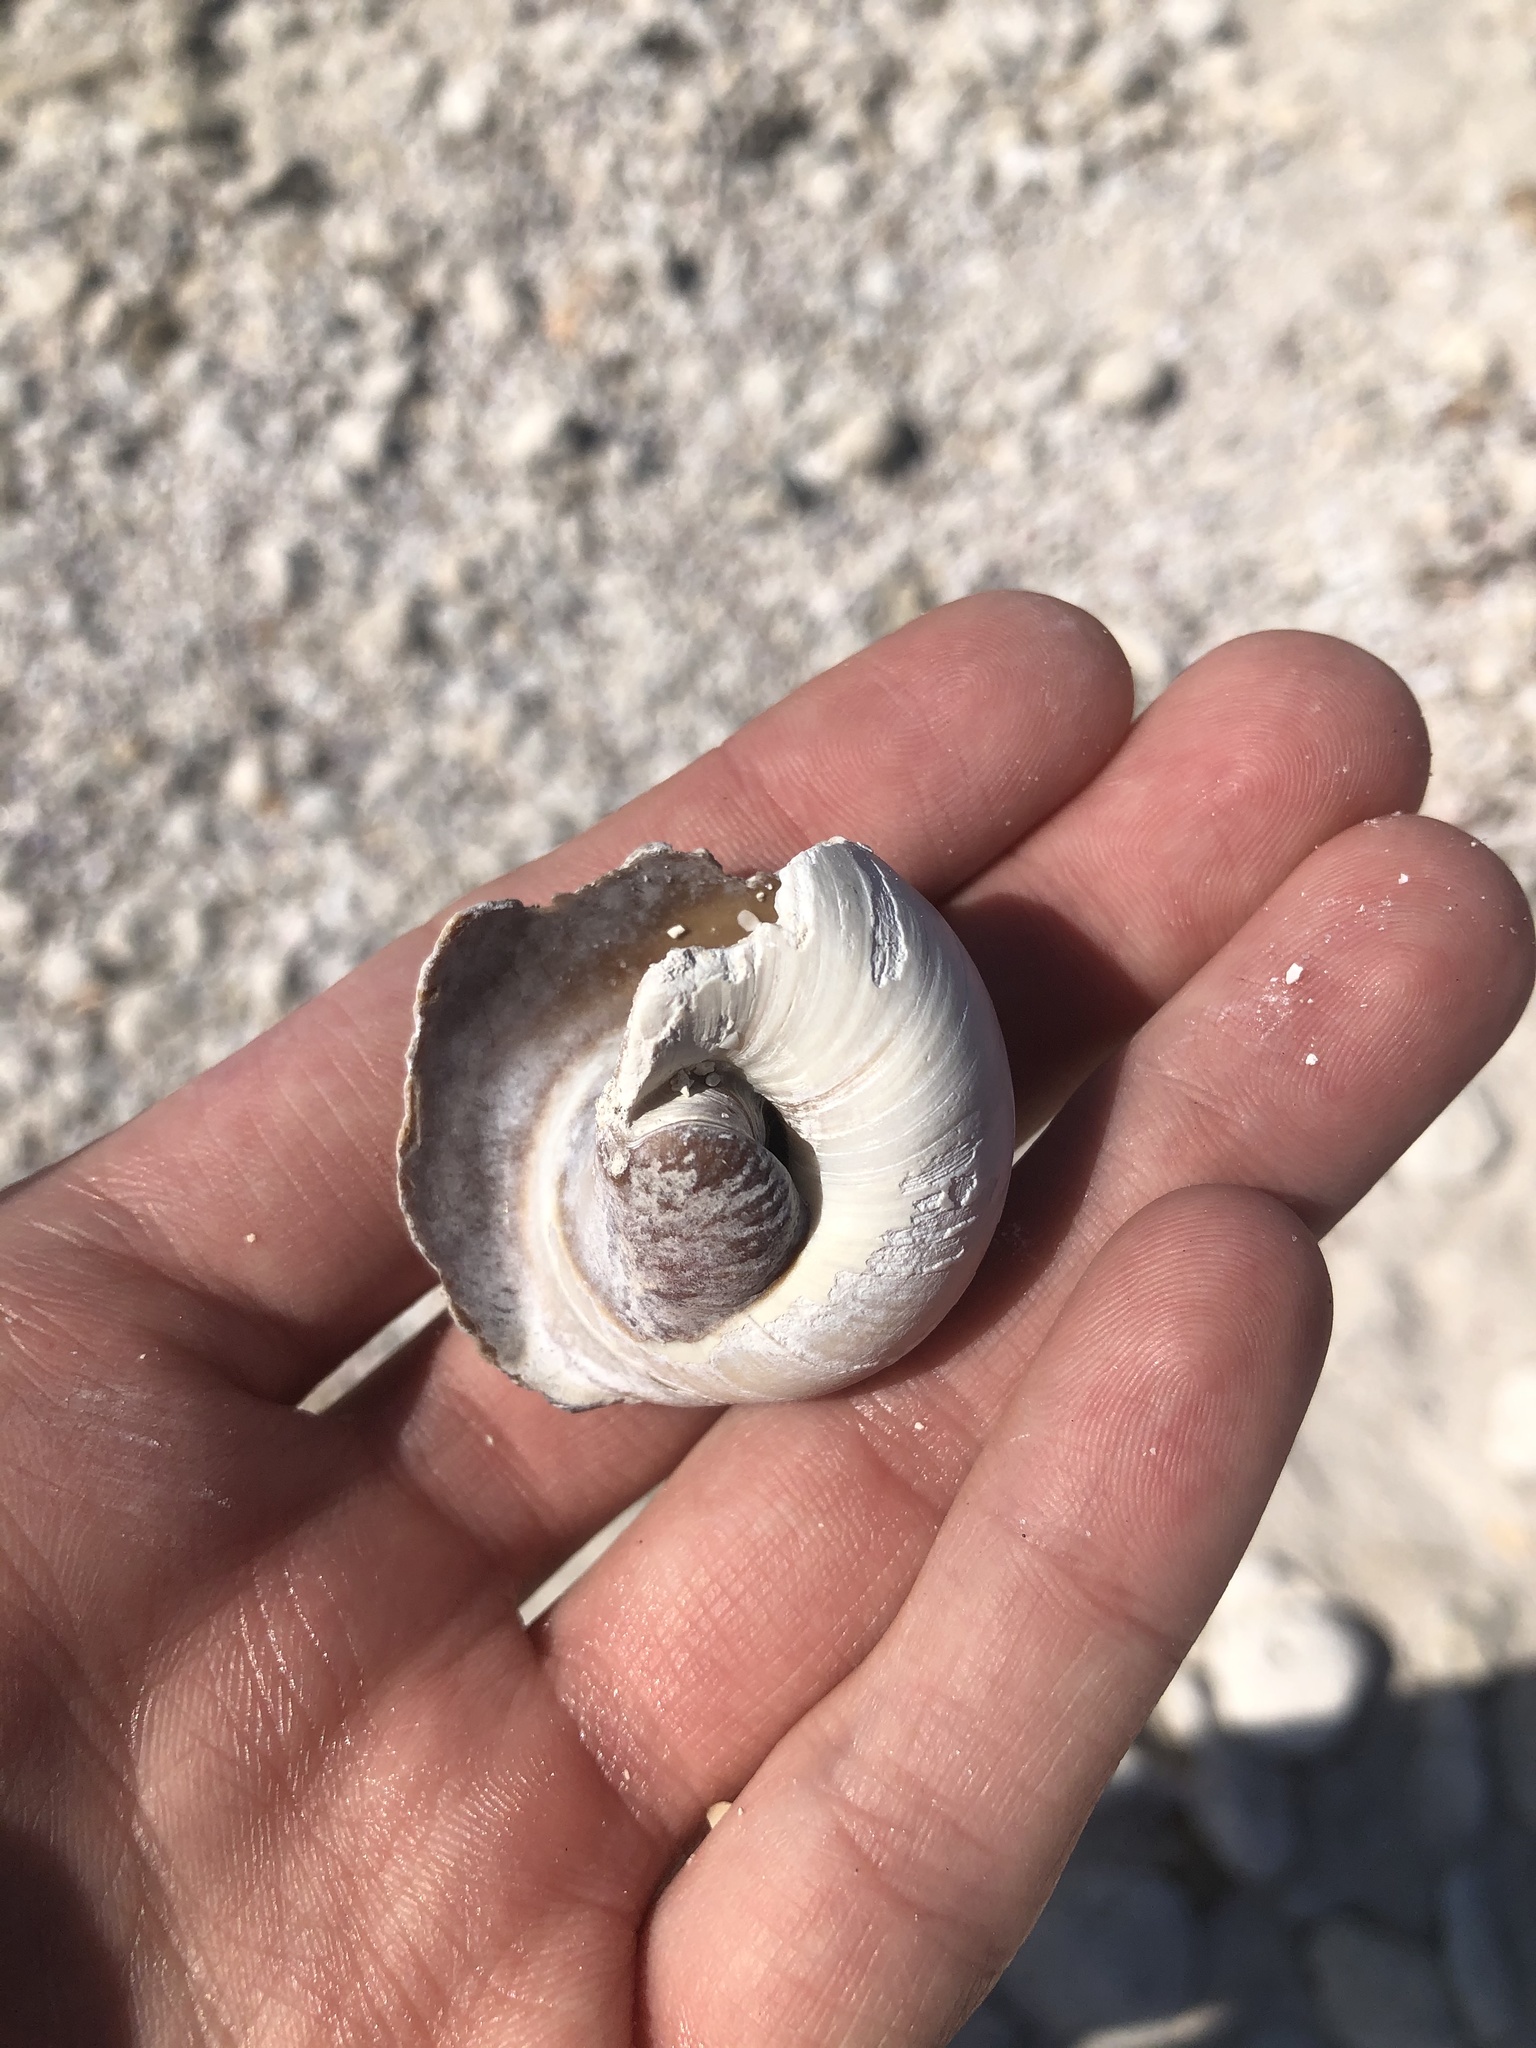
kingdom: Animalia
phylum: Mollusca
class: Gastropoda
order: Littorinimorpha
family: Naticidae
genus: Neverita
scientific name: Neverita duplicata
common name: Lobed moonsnail
